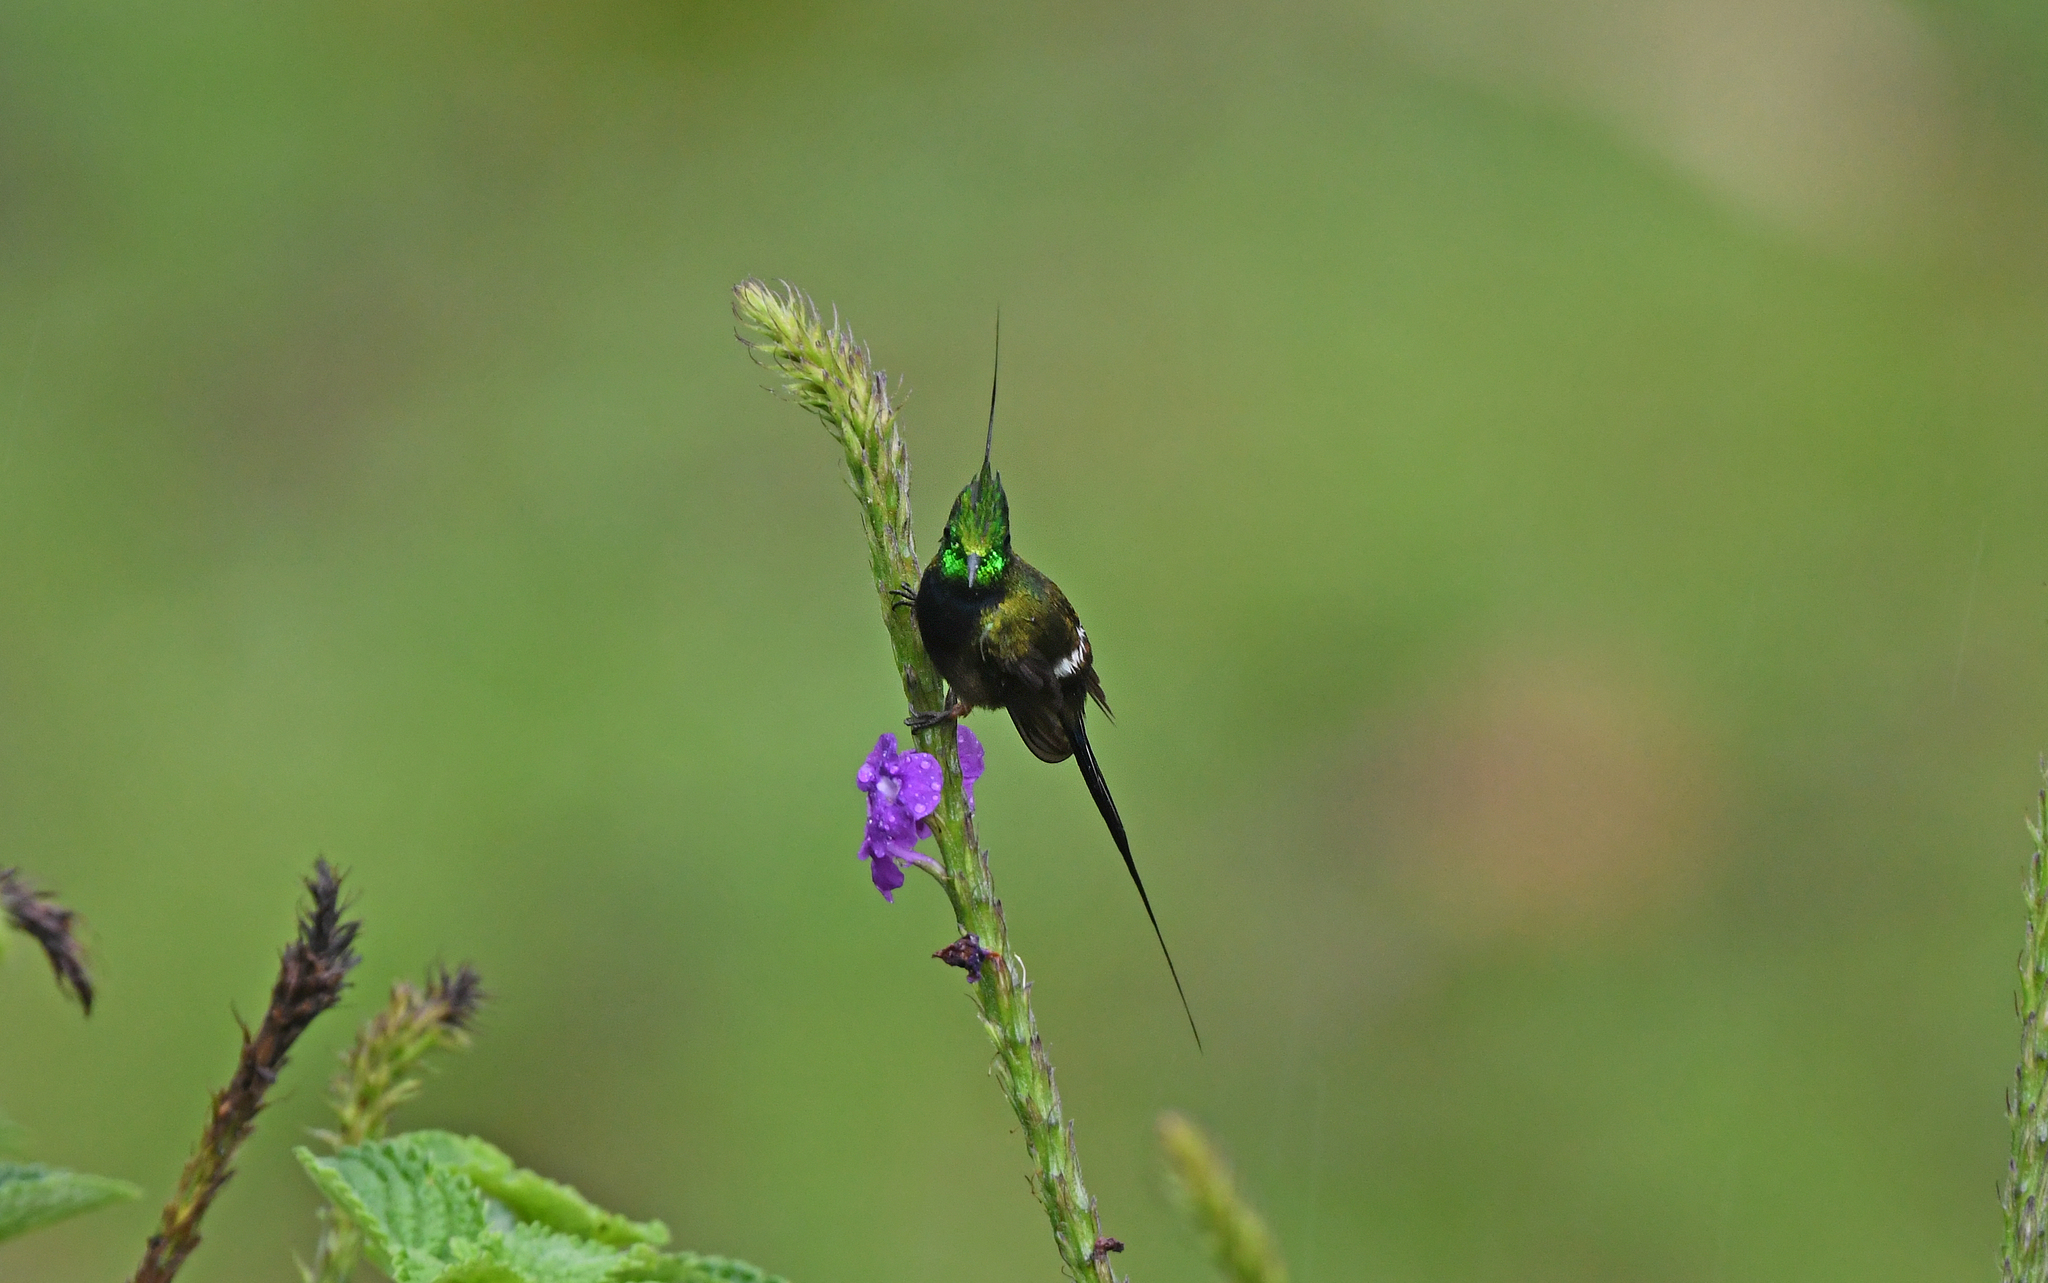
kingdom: Animalia
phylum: Chordata
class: Aves
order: Apodiformes
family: Trochilidae
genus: Discosura
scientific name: Discosura popelairii
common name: Wire-crested thorntail
